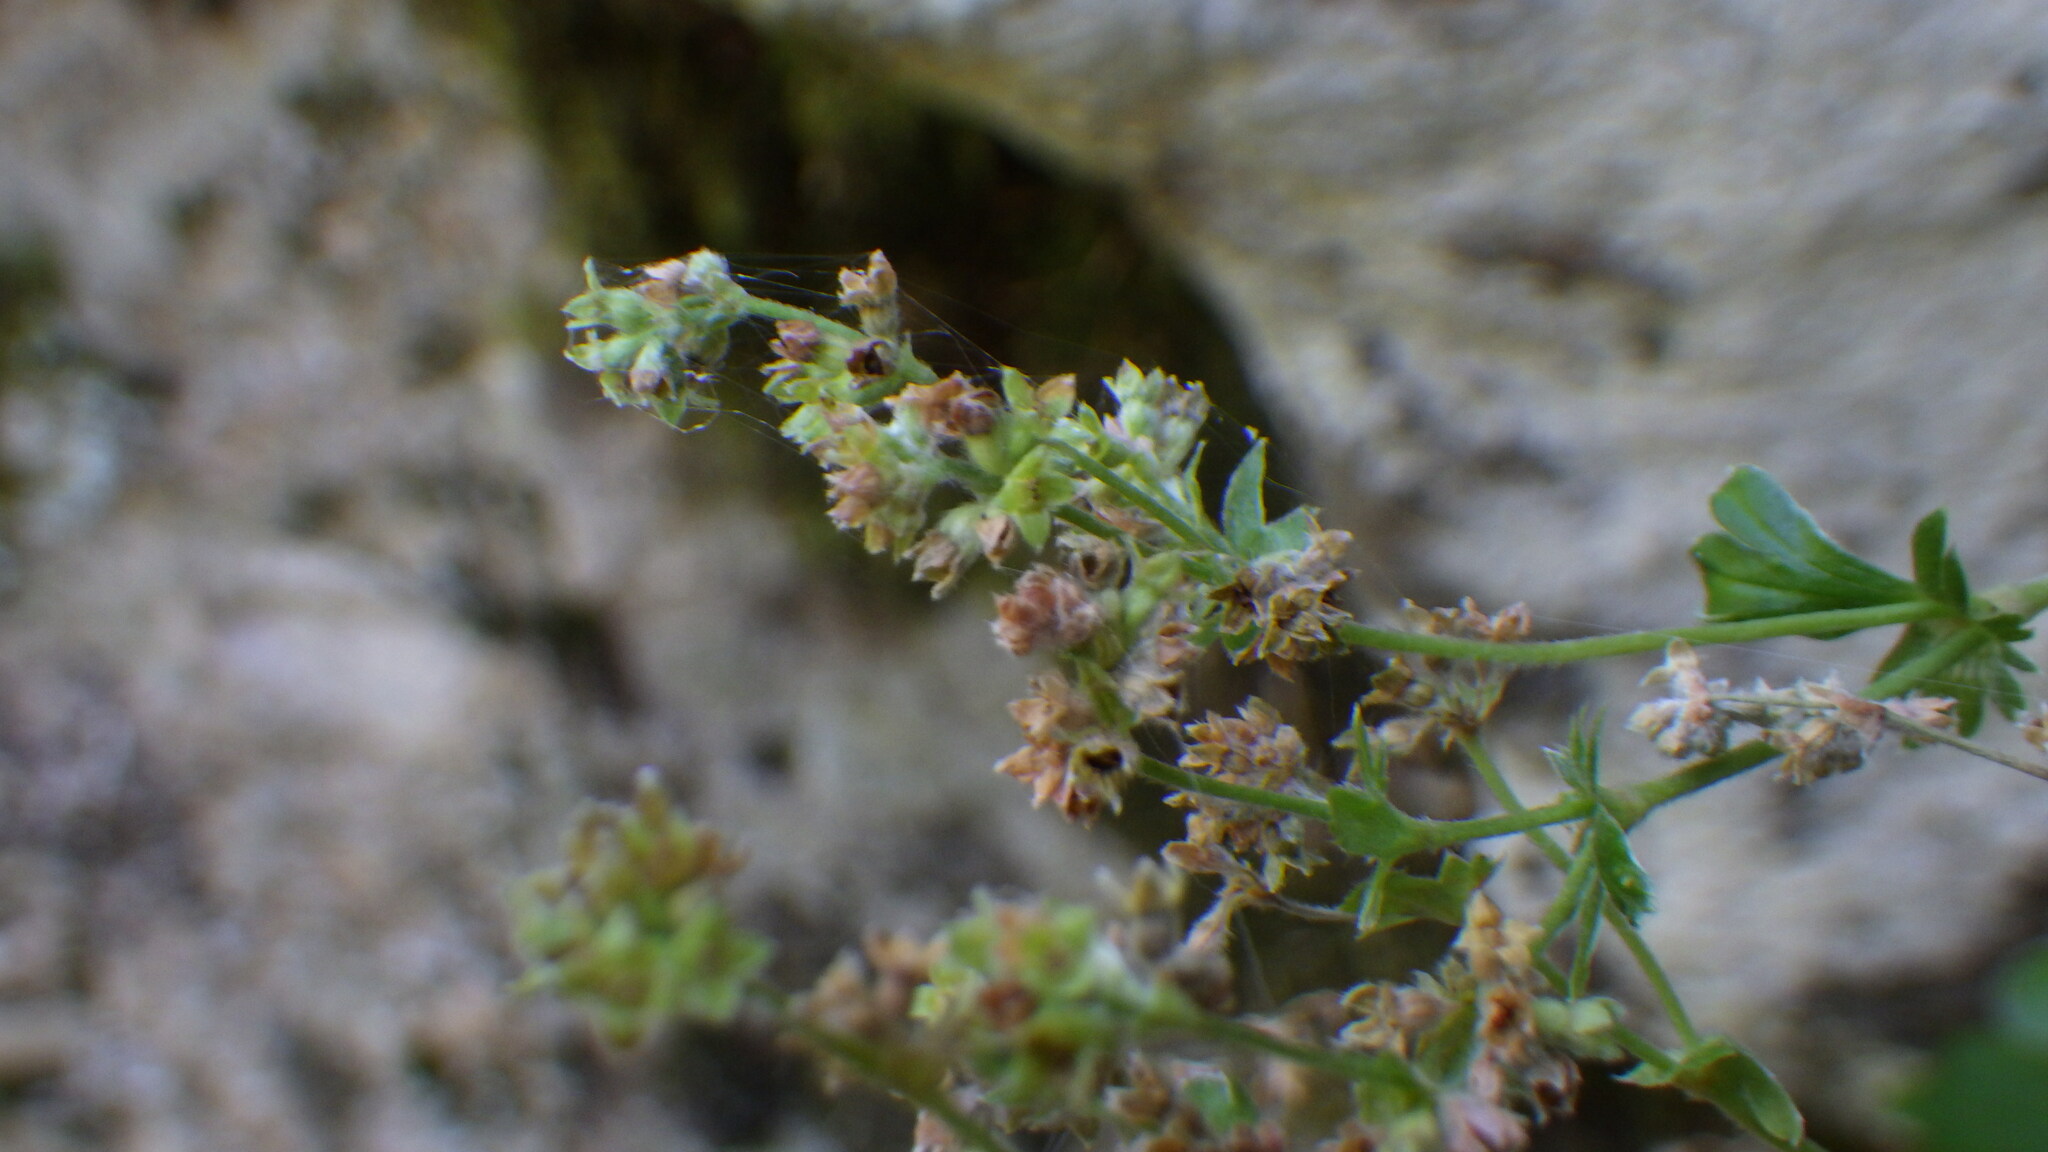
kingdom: Plantae
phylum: Tracheophyta
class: Magnoliopsida
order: Rosales
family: Rosaceae
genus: Alchemilla
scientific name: Alchemilla saxatilis
